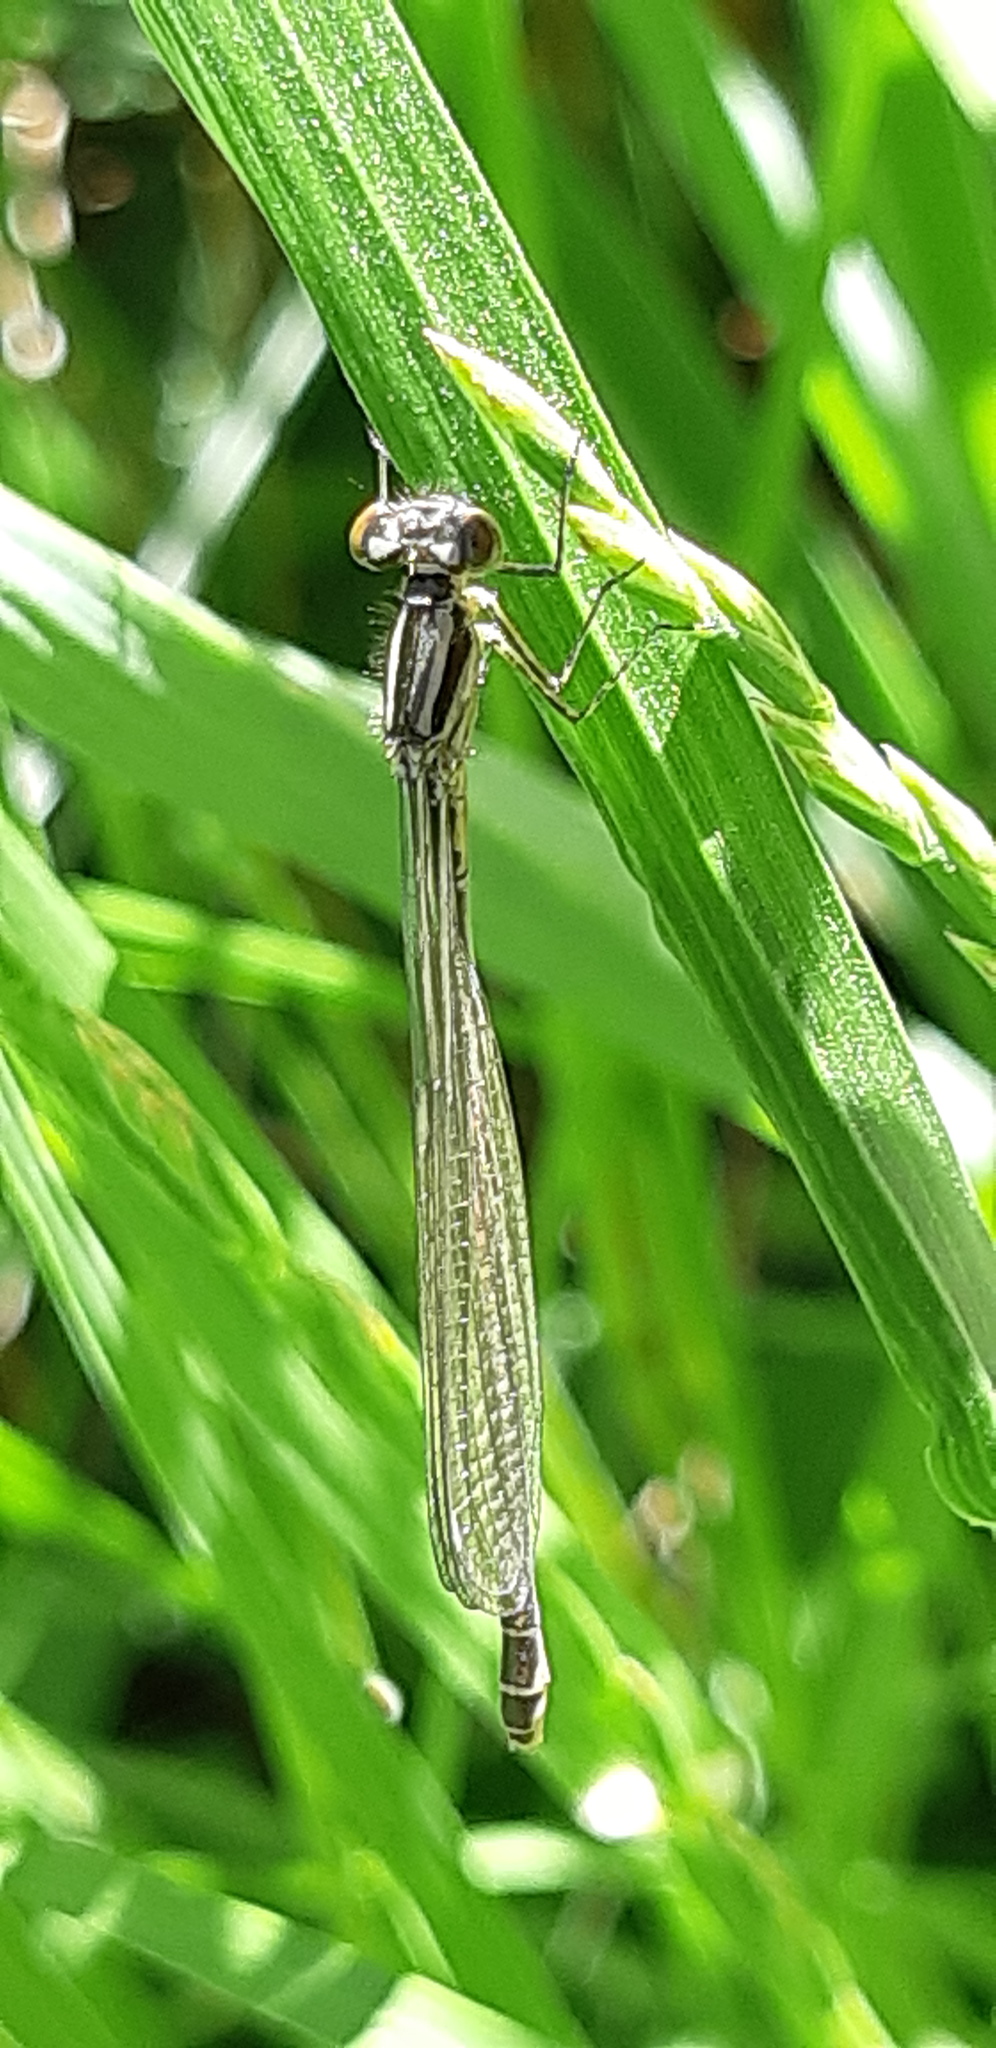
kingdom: Animalia
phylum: Arthropoda
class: Insecta
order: Odonata
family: Coenagrionidae
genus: Coenagrion
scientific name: Coenagrion puella
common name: Azure damselfly
